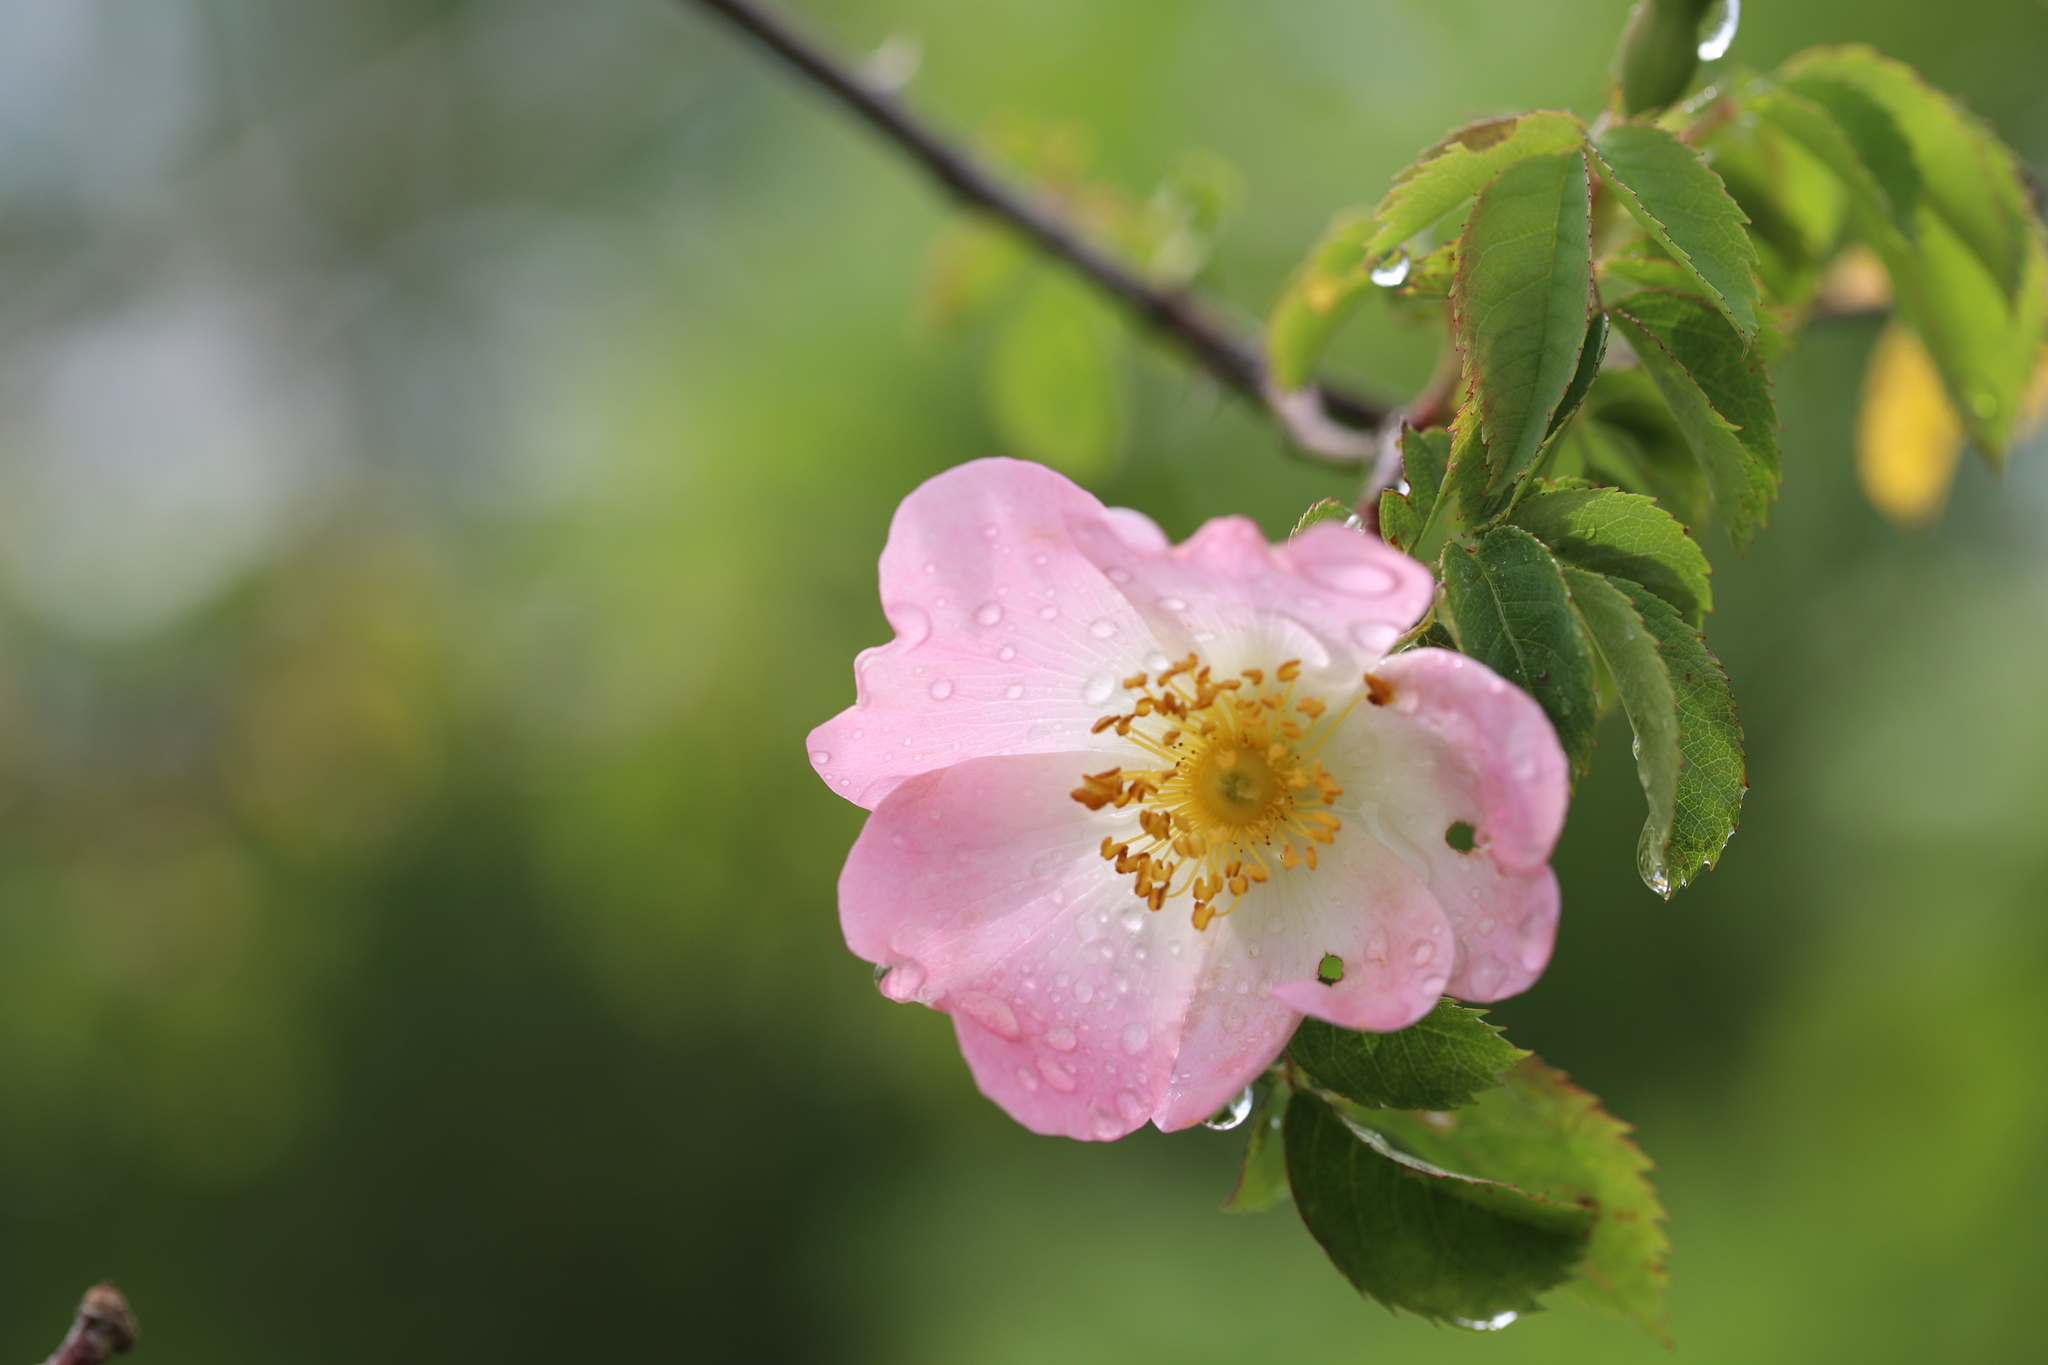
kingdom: Plantae
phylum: Tracheophyta
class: Magnoliopsida
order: Rosales
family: Rosaceae
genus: Rosa
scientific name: Rosa canina
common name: Dog rose
